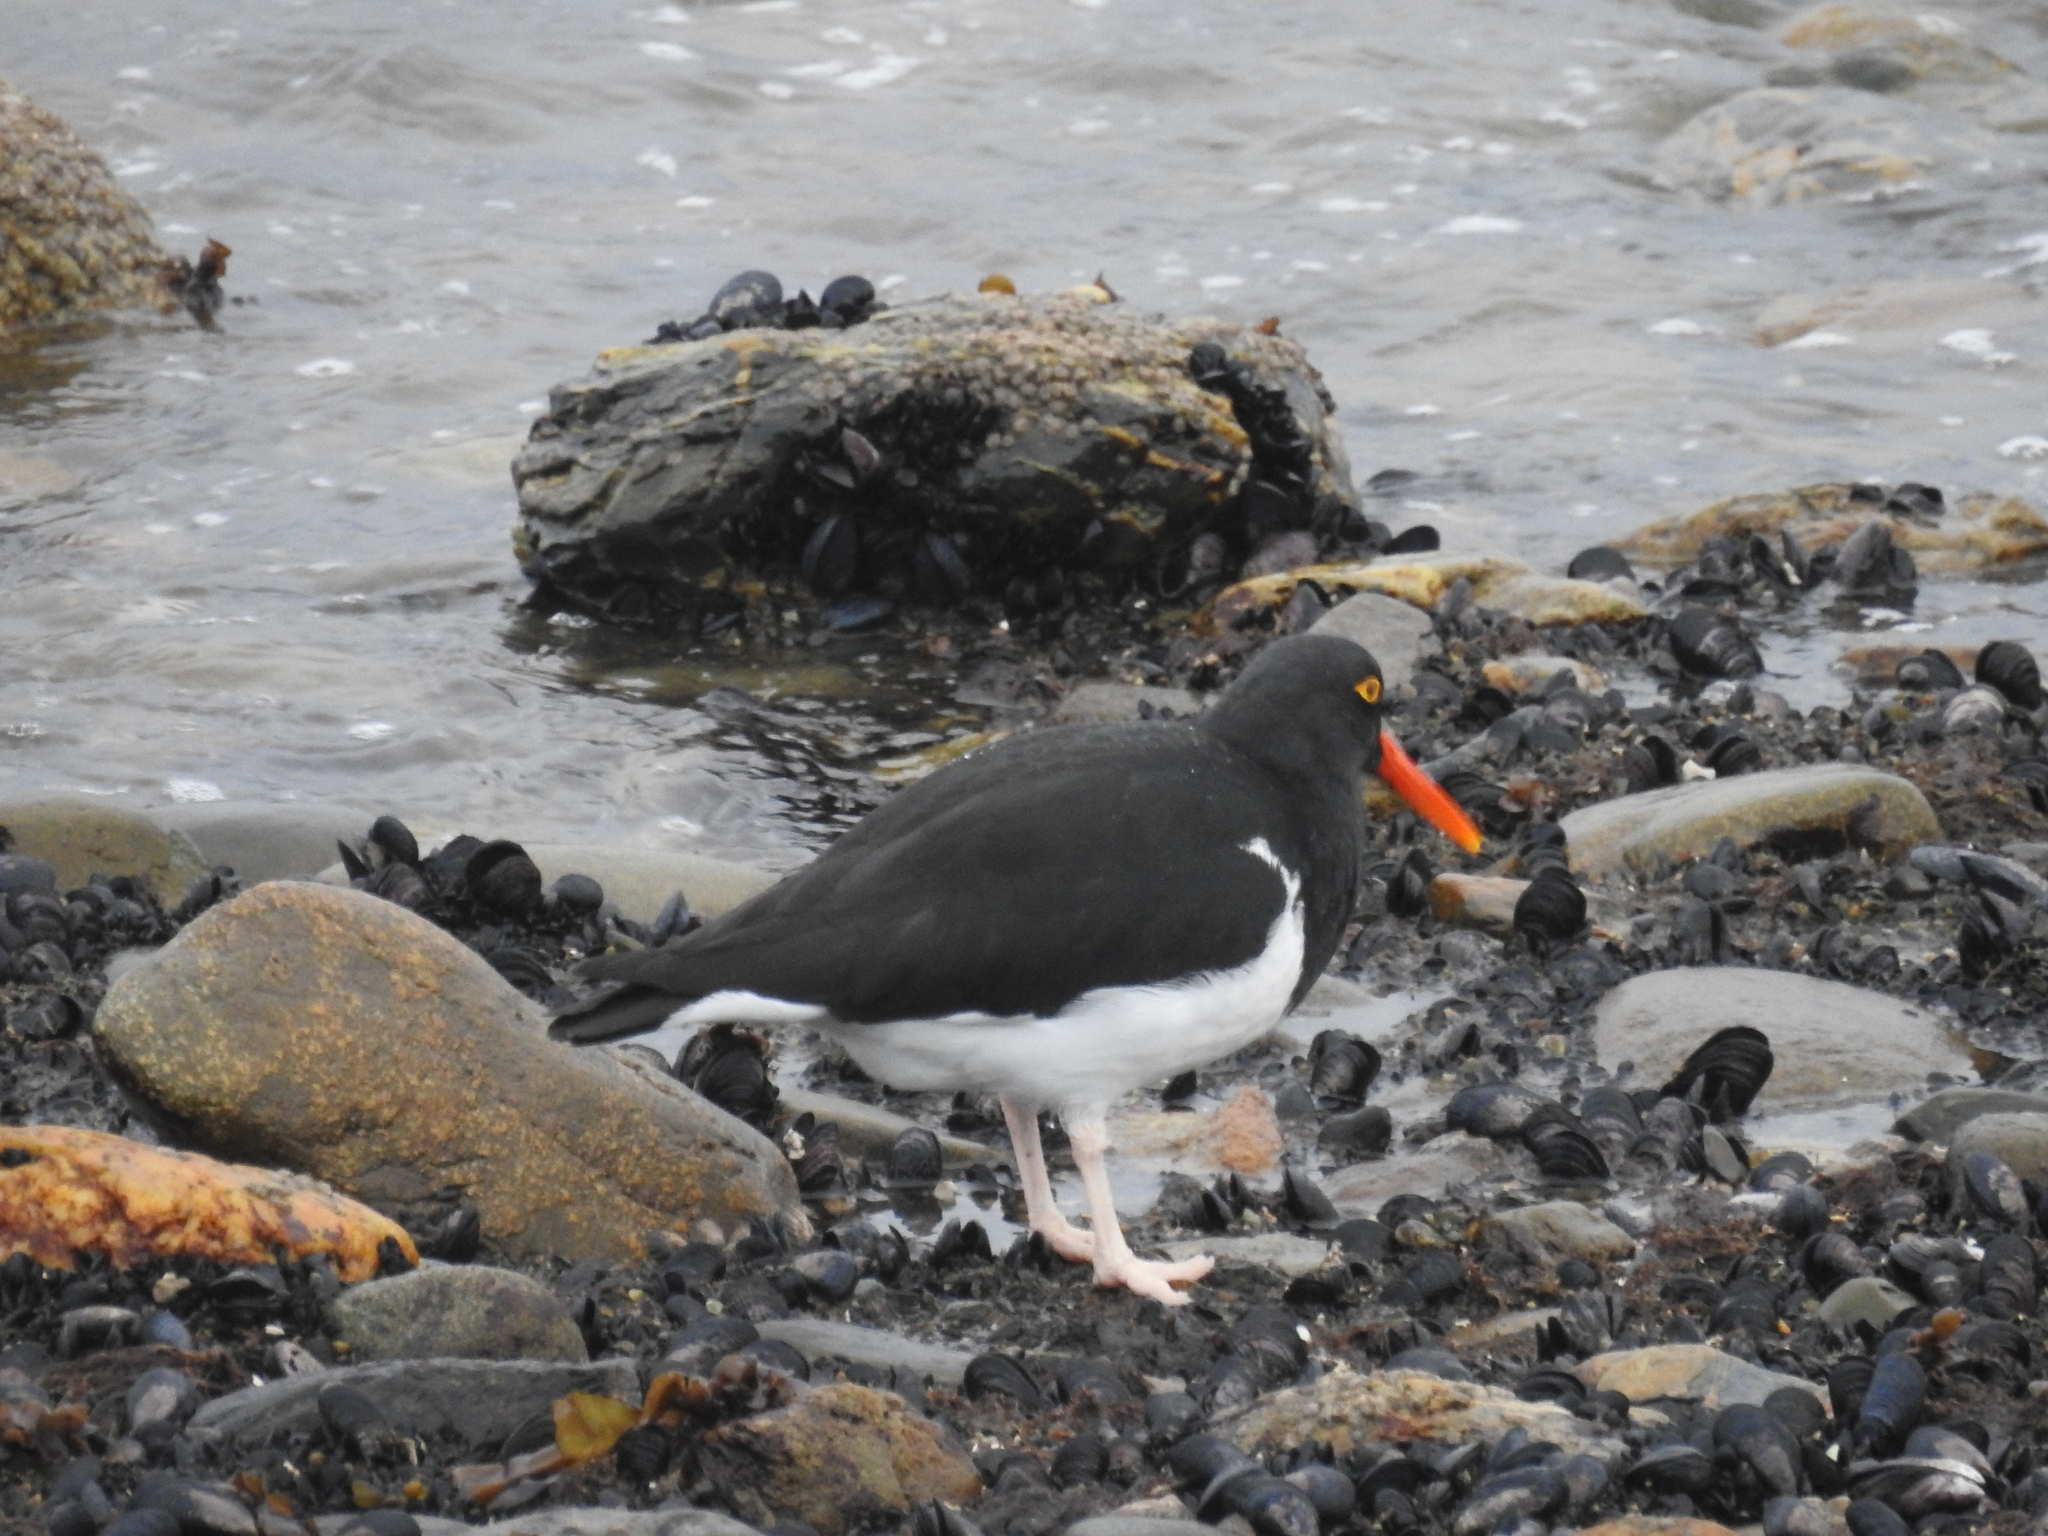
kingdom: Animalia
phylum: Chordata
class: Aves
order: Charadriiformes
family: Haematopodidae
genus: Haematopus
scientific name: Haematopus leucopodus
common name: Magellanic oystercatcher
